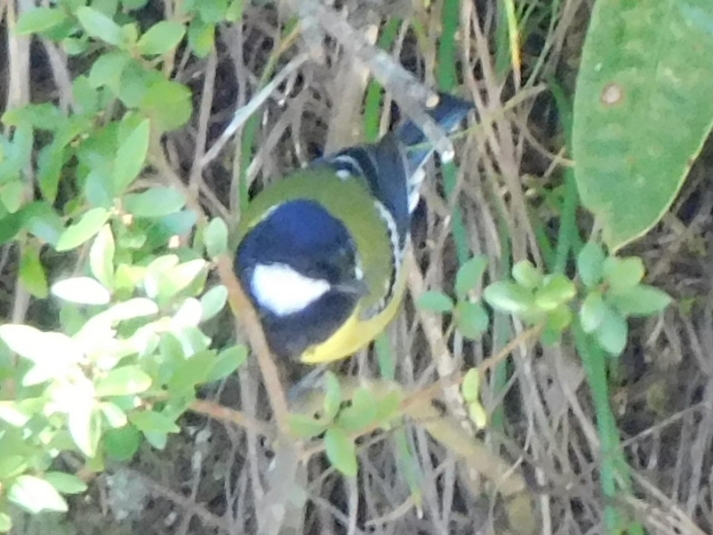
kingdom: Animalia
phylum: Chordata
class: Aves
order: Passeriformes
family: Paridae
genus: Parus
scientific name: Parus monticolus
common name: Green-backed tit
